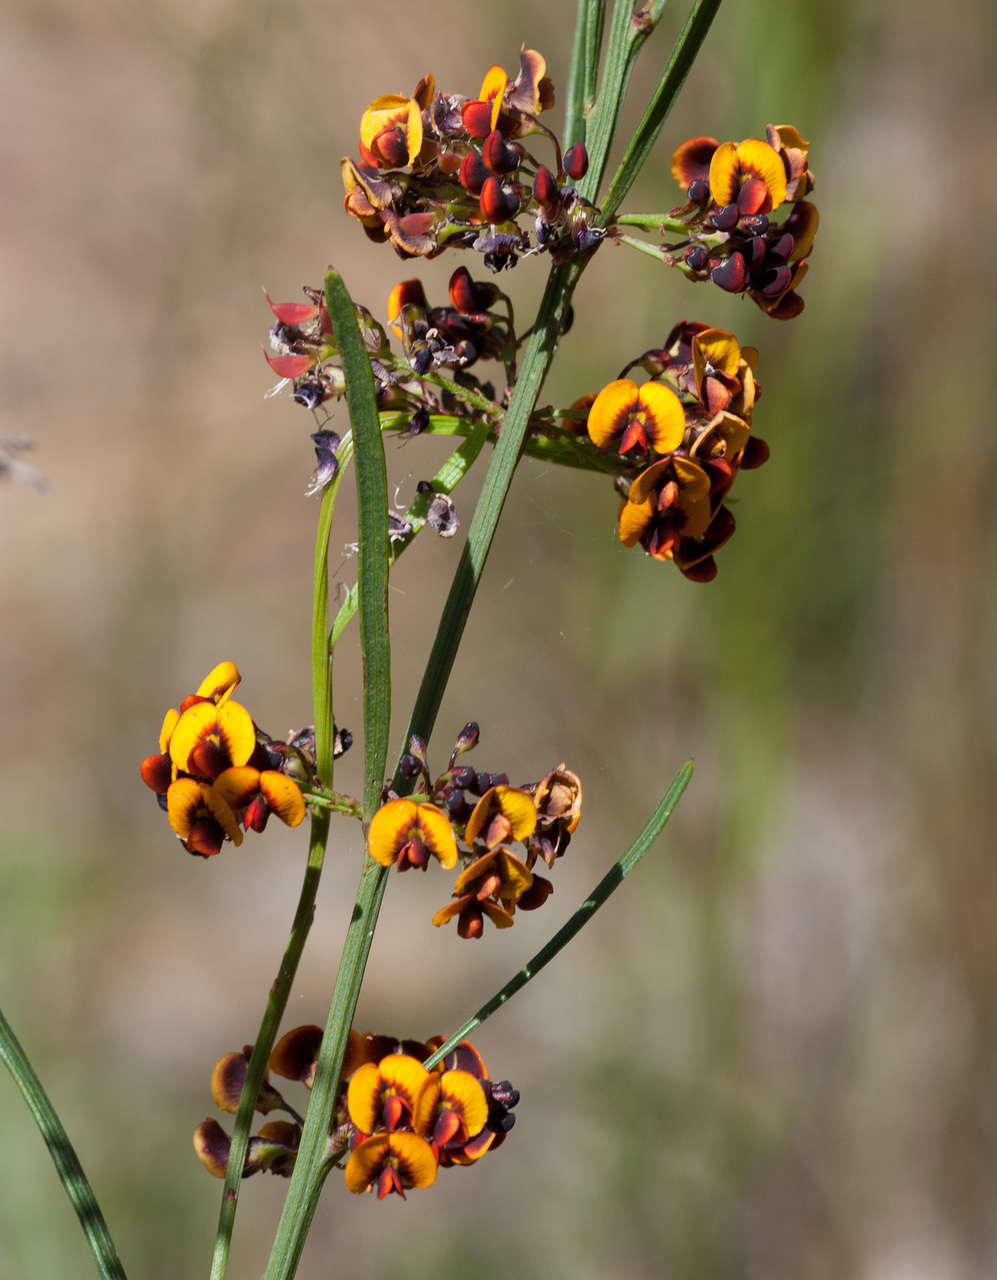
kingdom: Plantae
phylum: Tracheophyta
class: Magnoliopsida
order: Fabales
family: Fabaceae
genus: Daviesia
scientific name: Daviesia leptophylla
